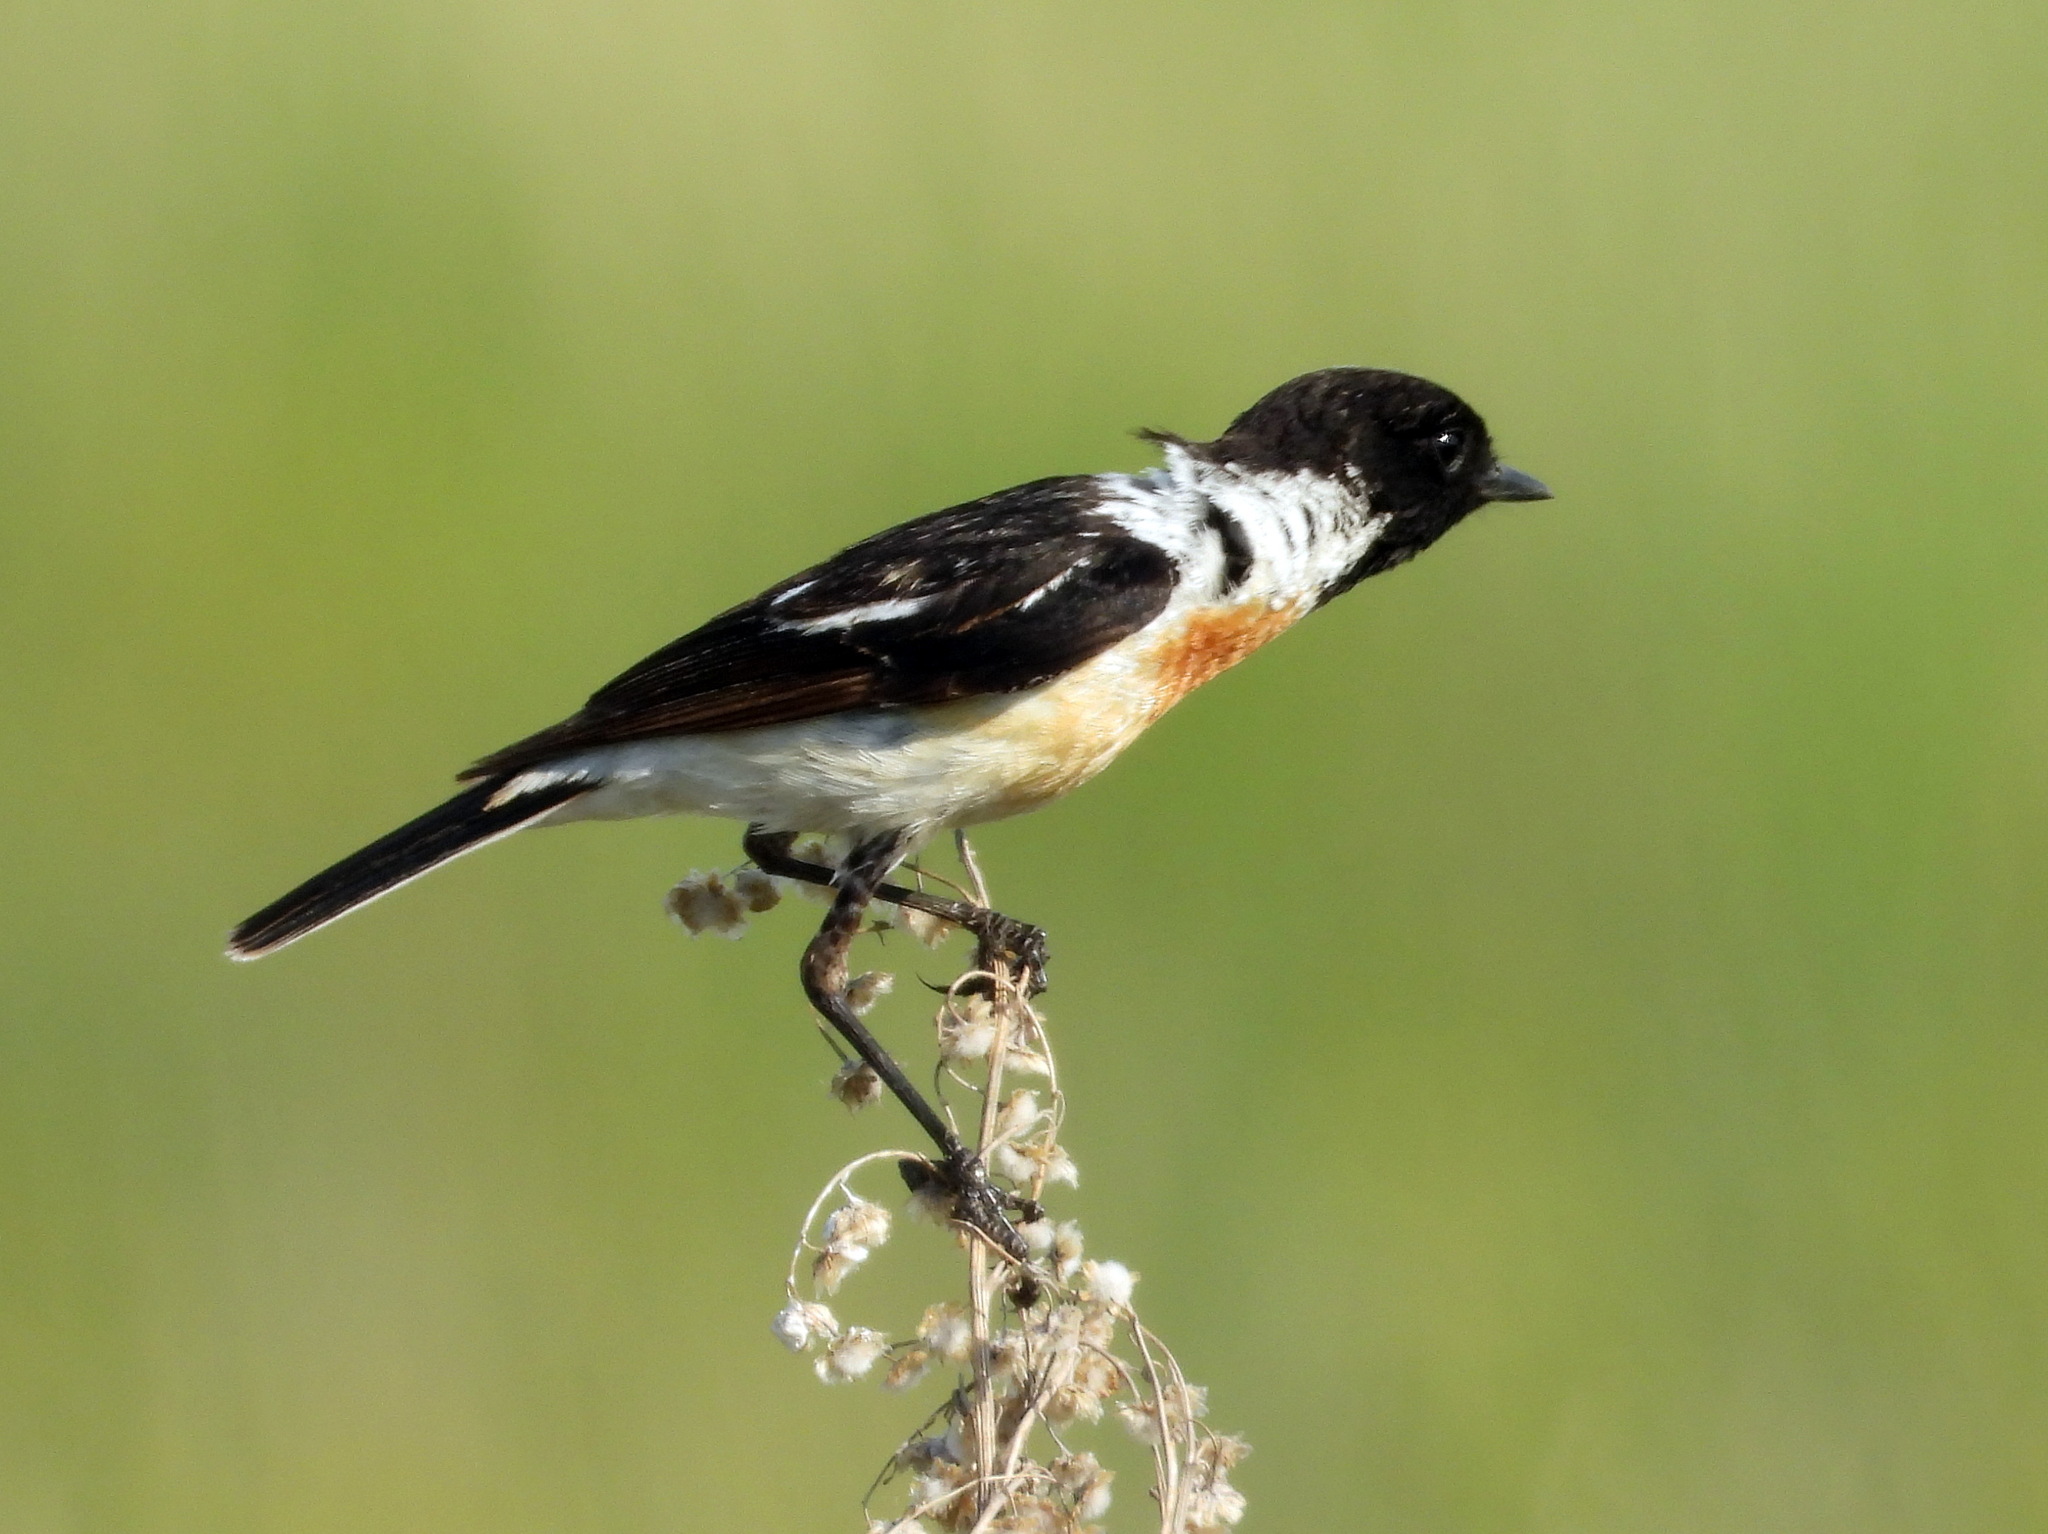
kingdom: Animalia
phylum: Chordata
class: Aves
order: Passeriformes
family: Muscicapidae
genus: Saxicola
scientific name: Saxicola maurus
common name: Siberian stonechat
